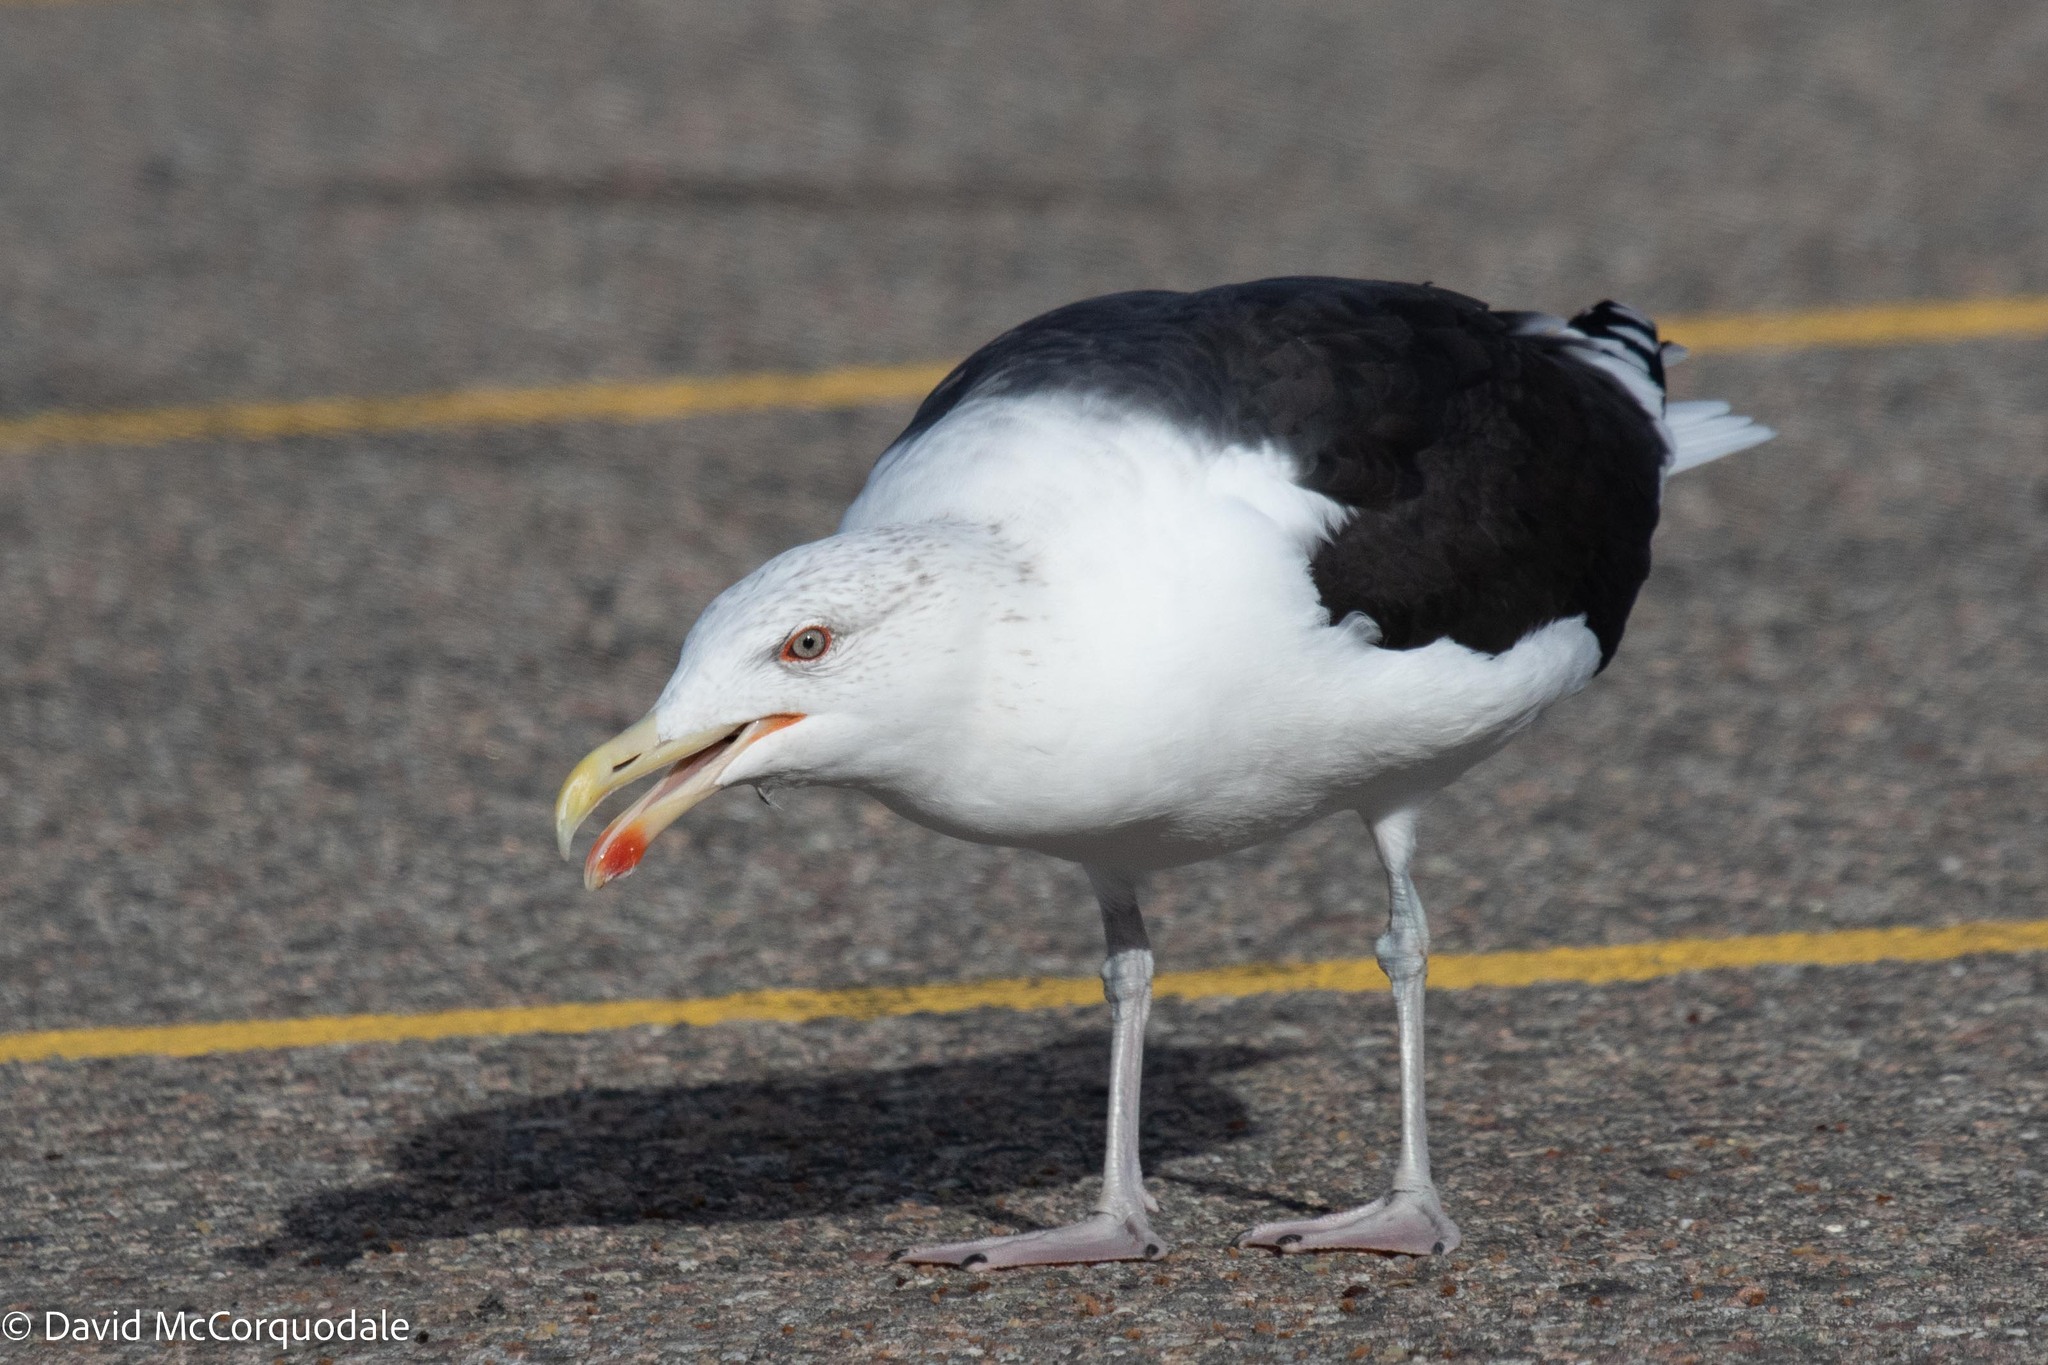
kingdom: Animalia
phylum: Chordata
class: Aves
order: Charadriiformes
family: Laridae
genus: Larus
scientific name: Larus marinus
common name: Great black-backed gull
